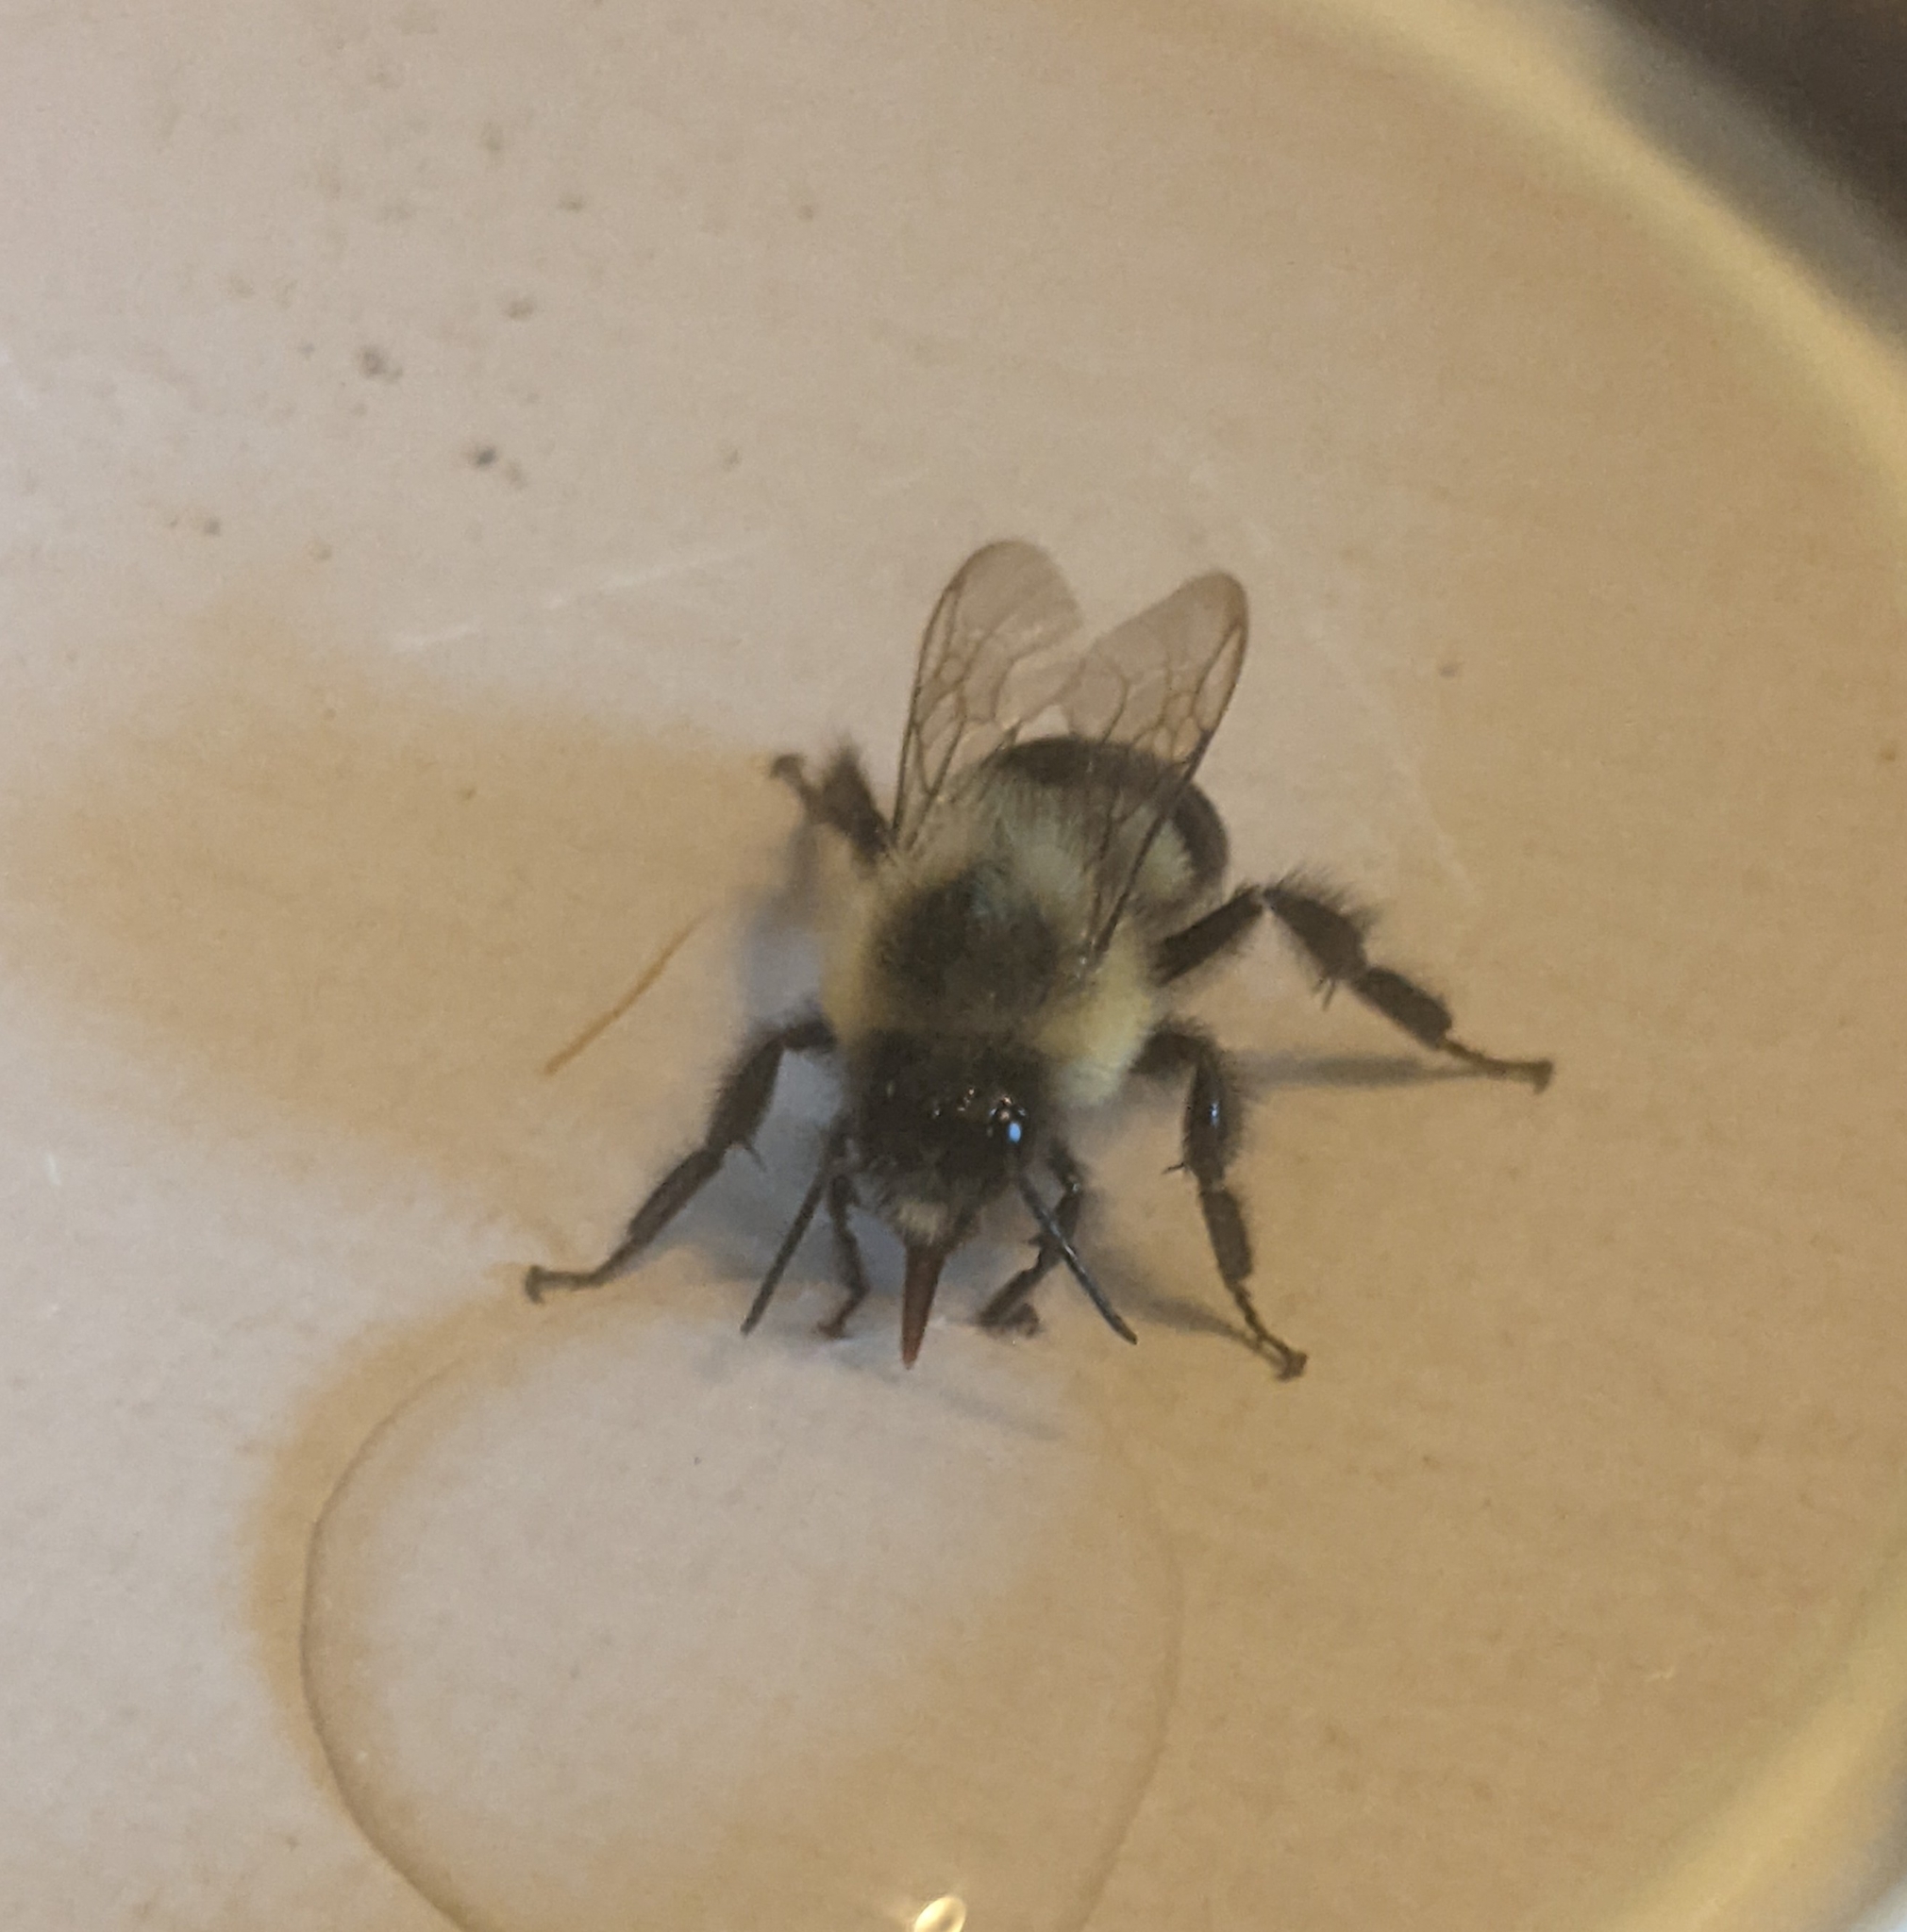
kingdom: Animalia
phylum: Arthropoda
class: Insecta
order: Hymenoptera
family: Apidae
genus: Bombus
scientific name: Bombus impatiens
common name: Common eastern bumble bee
